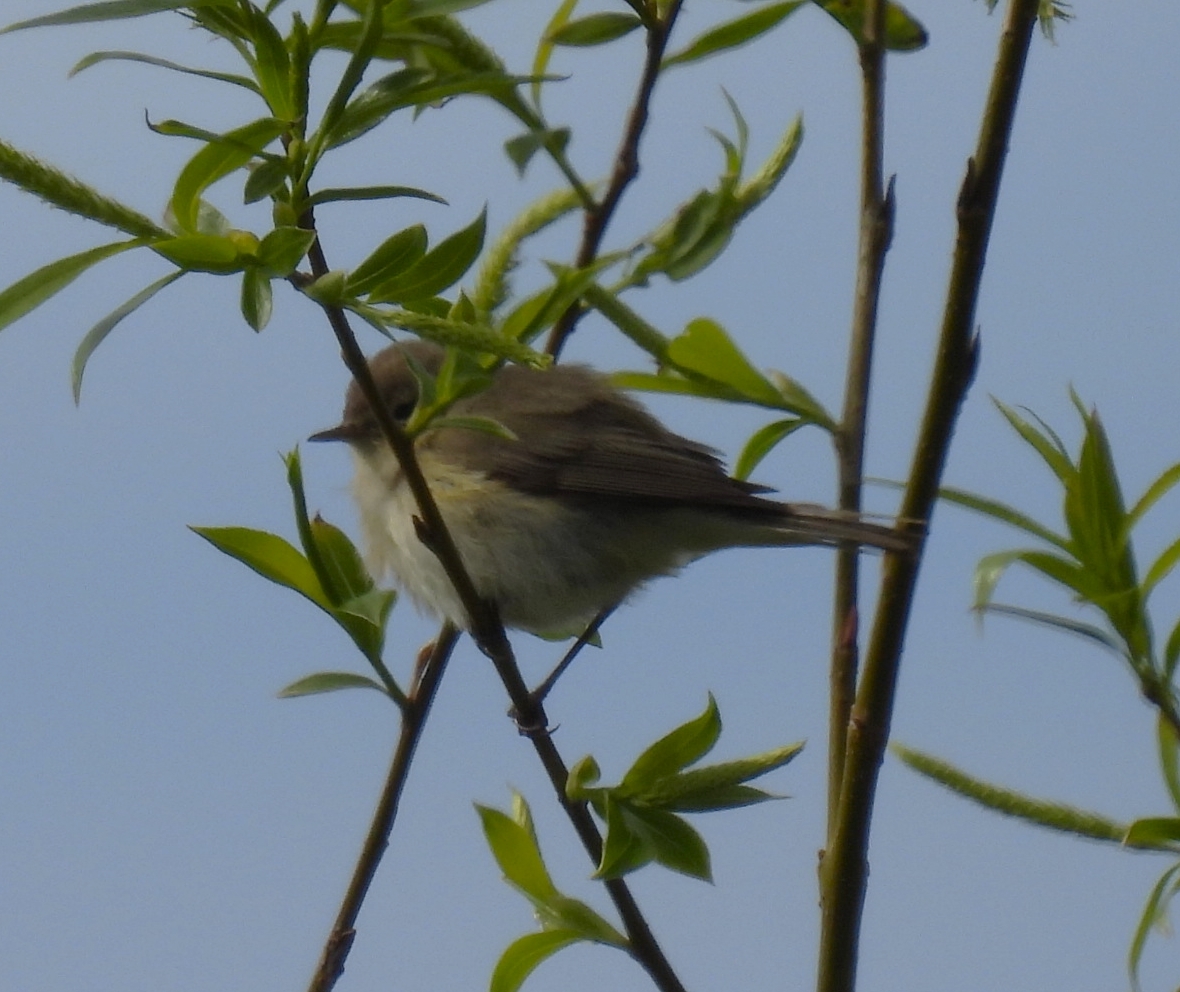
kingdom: Animalia
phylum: Chordata
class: Aves
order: Passeriformes
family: Phylloscopidae
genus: Phylloscopus
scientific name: Phylloscopus collybita
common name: Common chiffchaff
